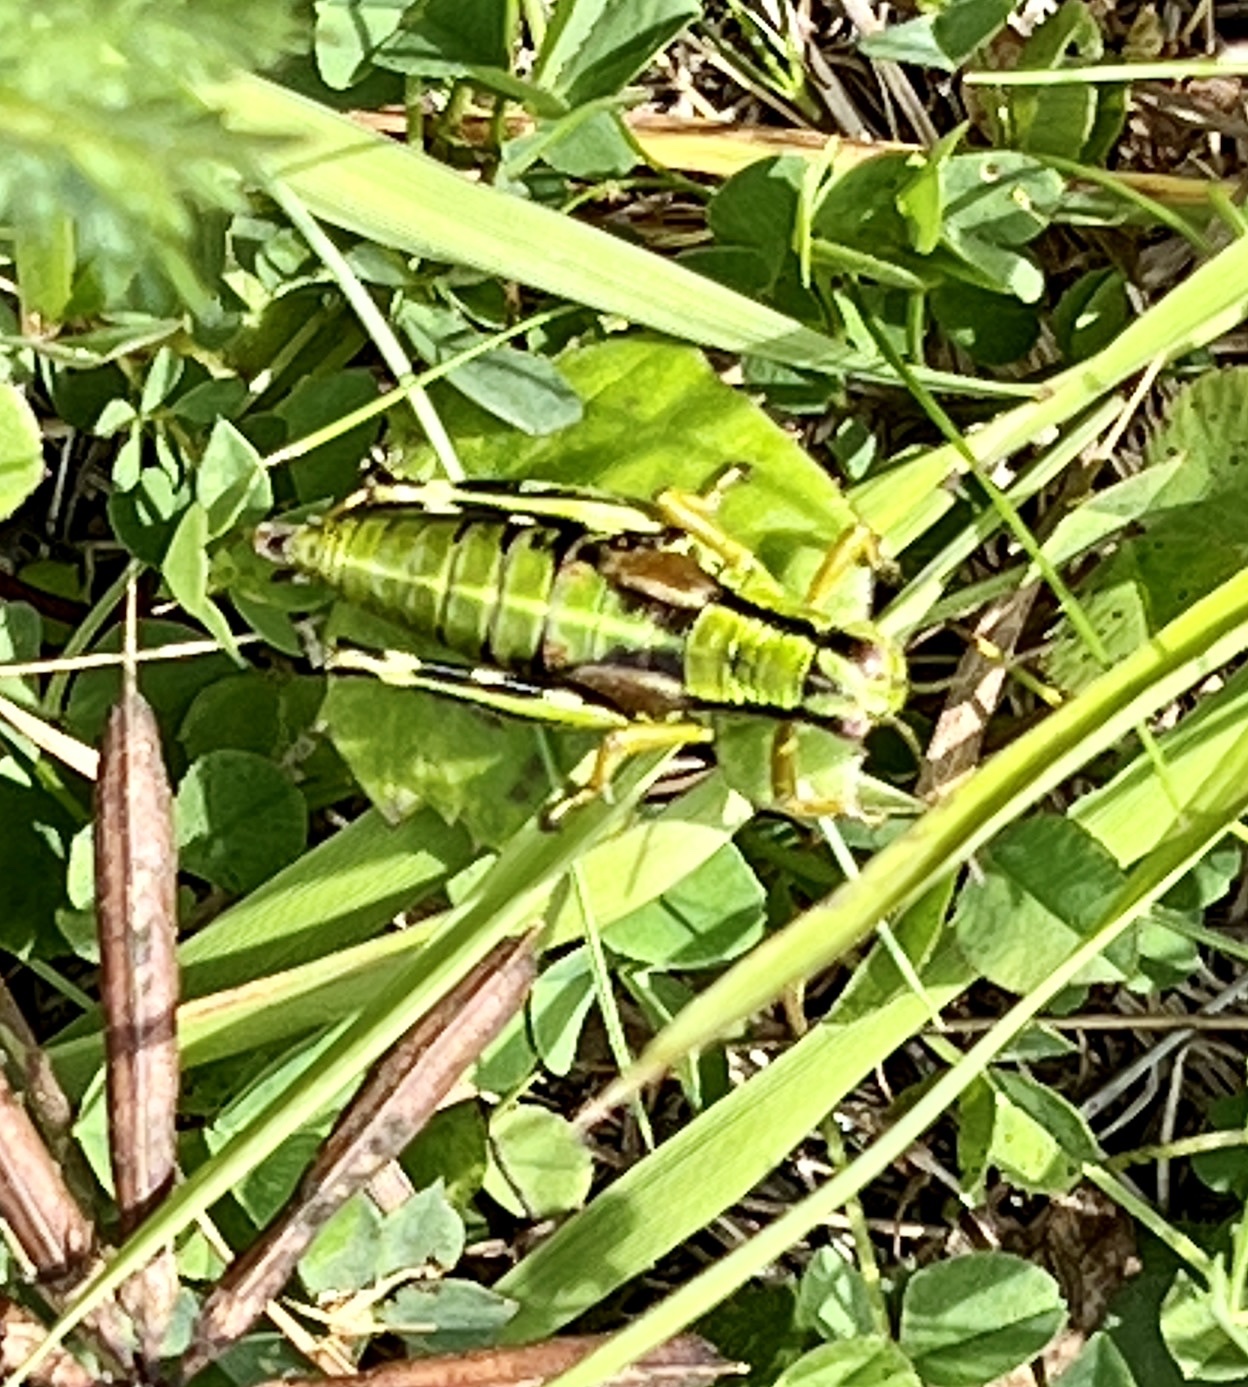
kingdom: Animalia
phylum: Arthropoda
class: Insecta
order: Orthoptera
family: Acrididae
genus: Miramella
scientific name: Miramella alpina
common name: Green mountain grasshopper
